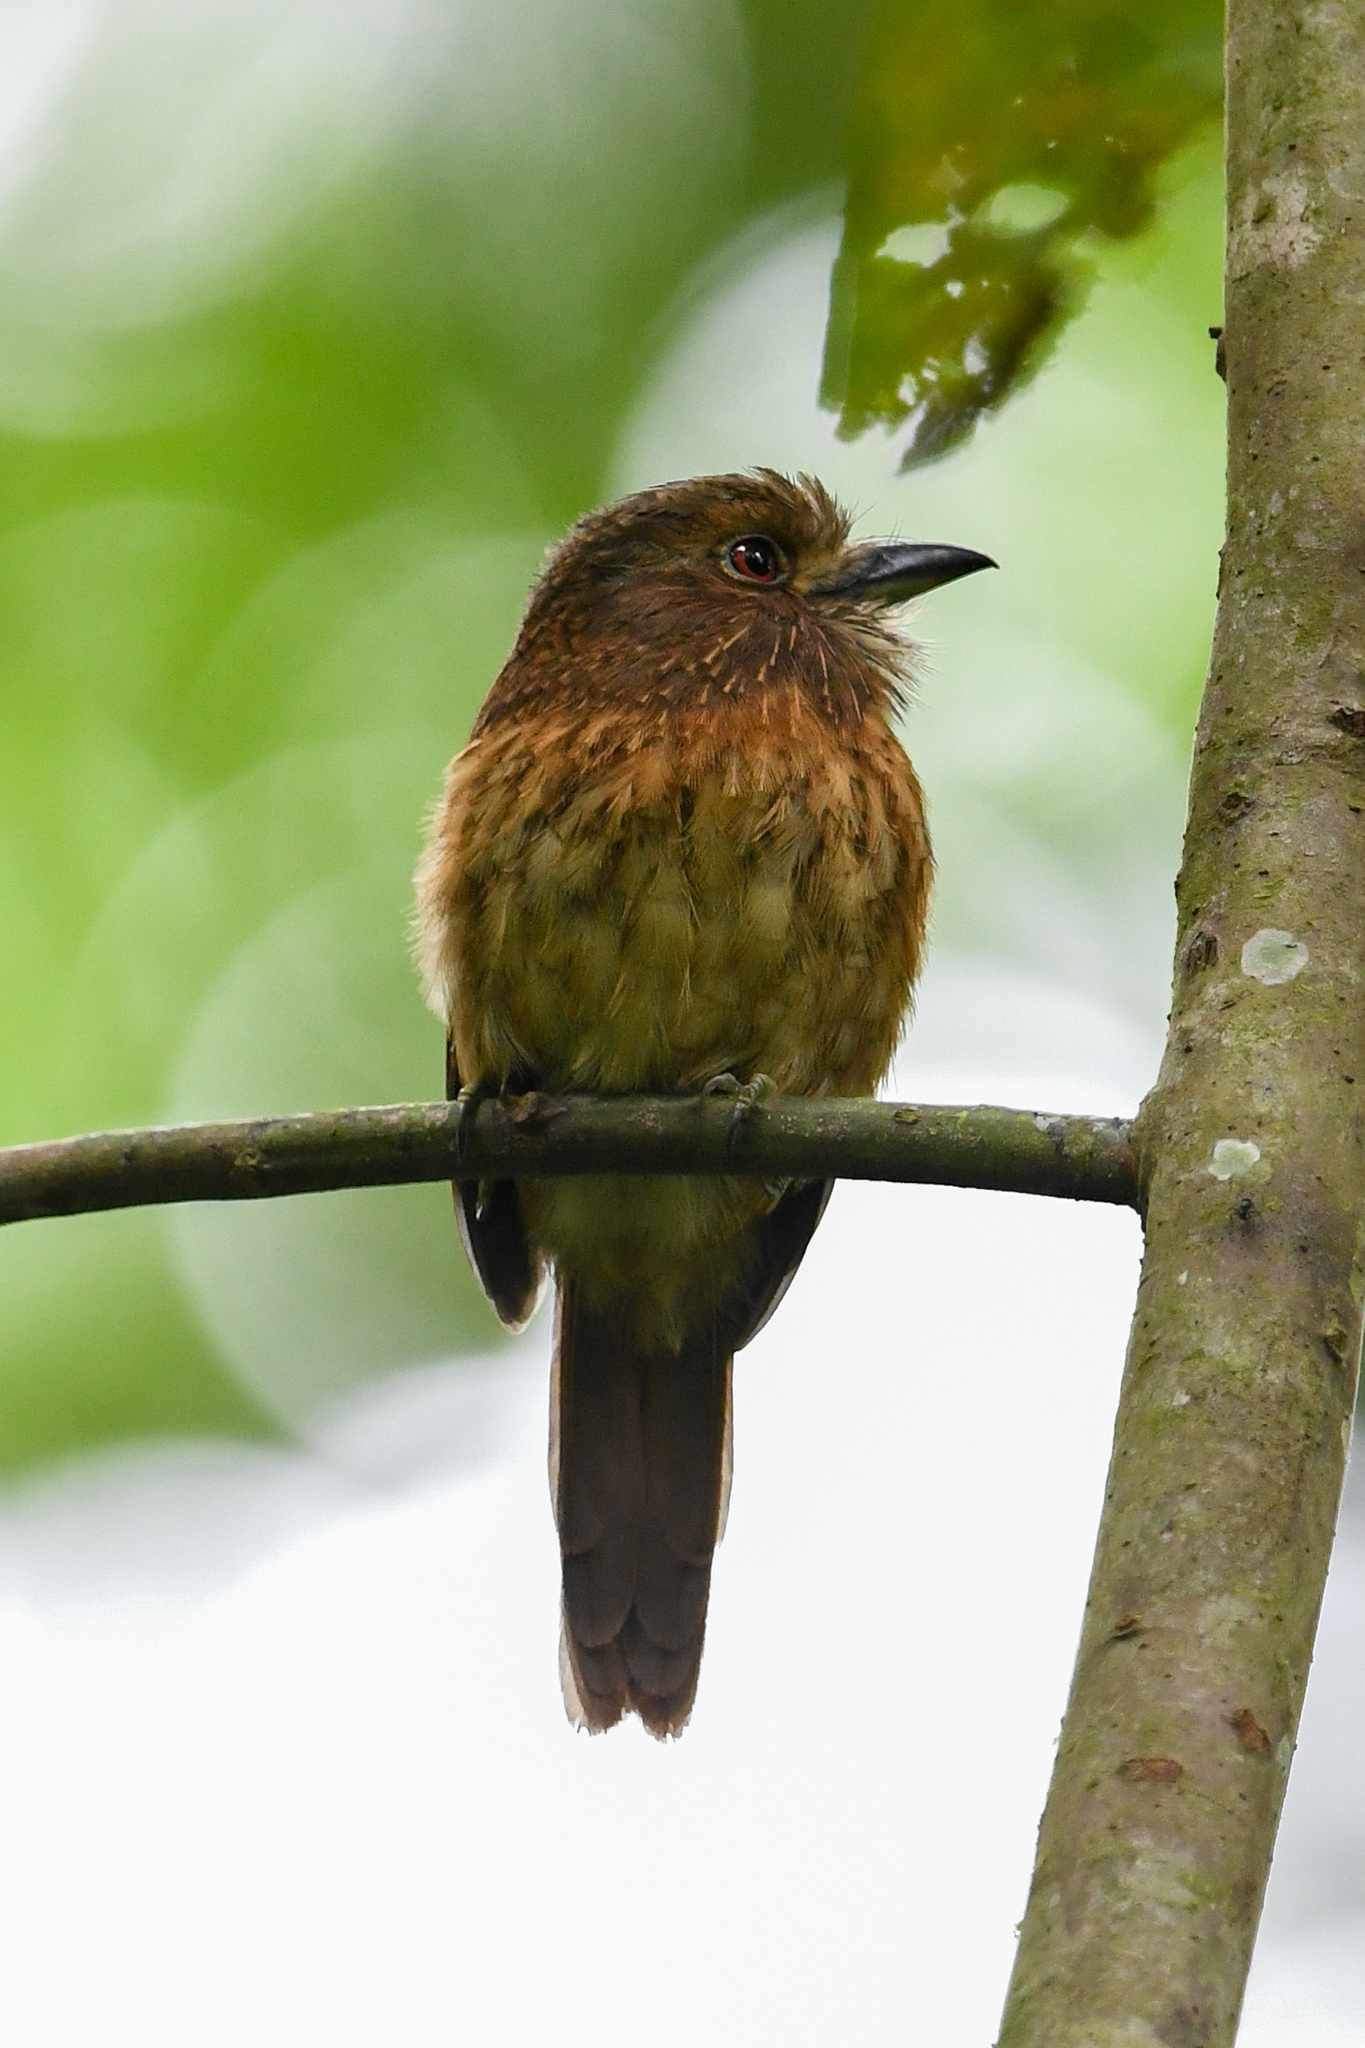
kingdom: Animalia
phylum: Chordata
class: Aves
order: Piciformes
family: Bucconidae
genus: Malacoptila
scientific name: Malacoptila panamensis
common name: White-whiskered puffbird
